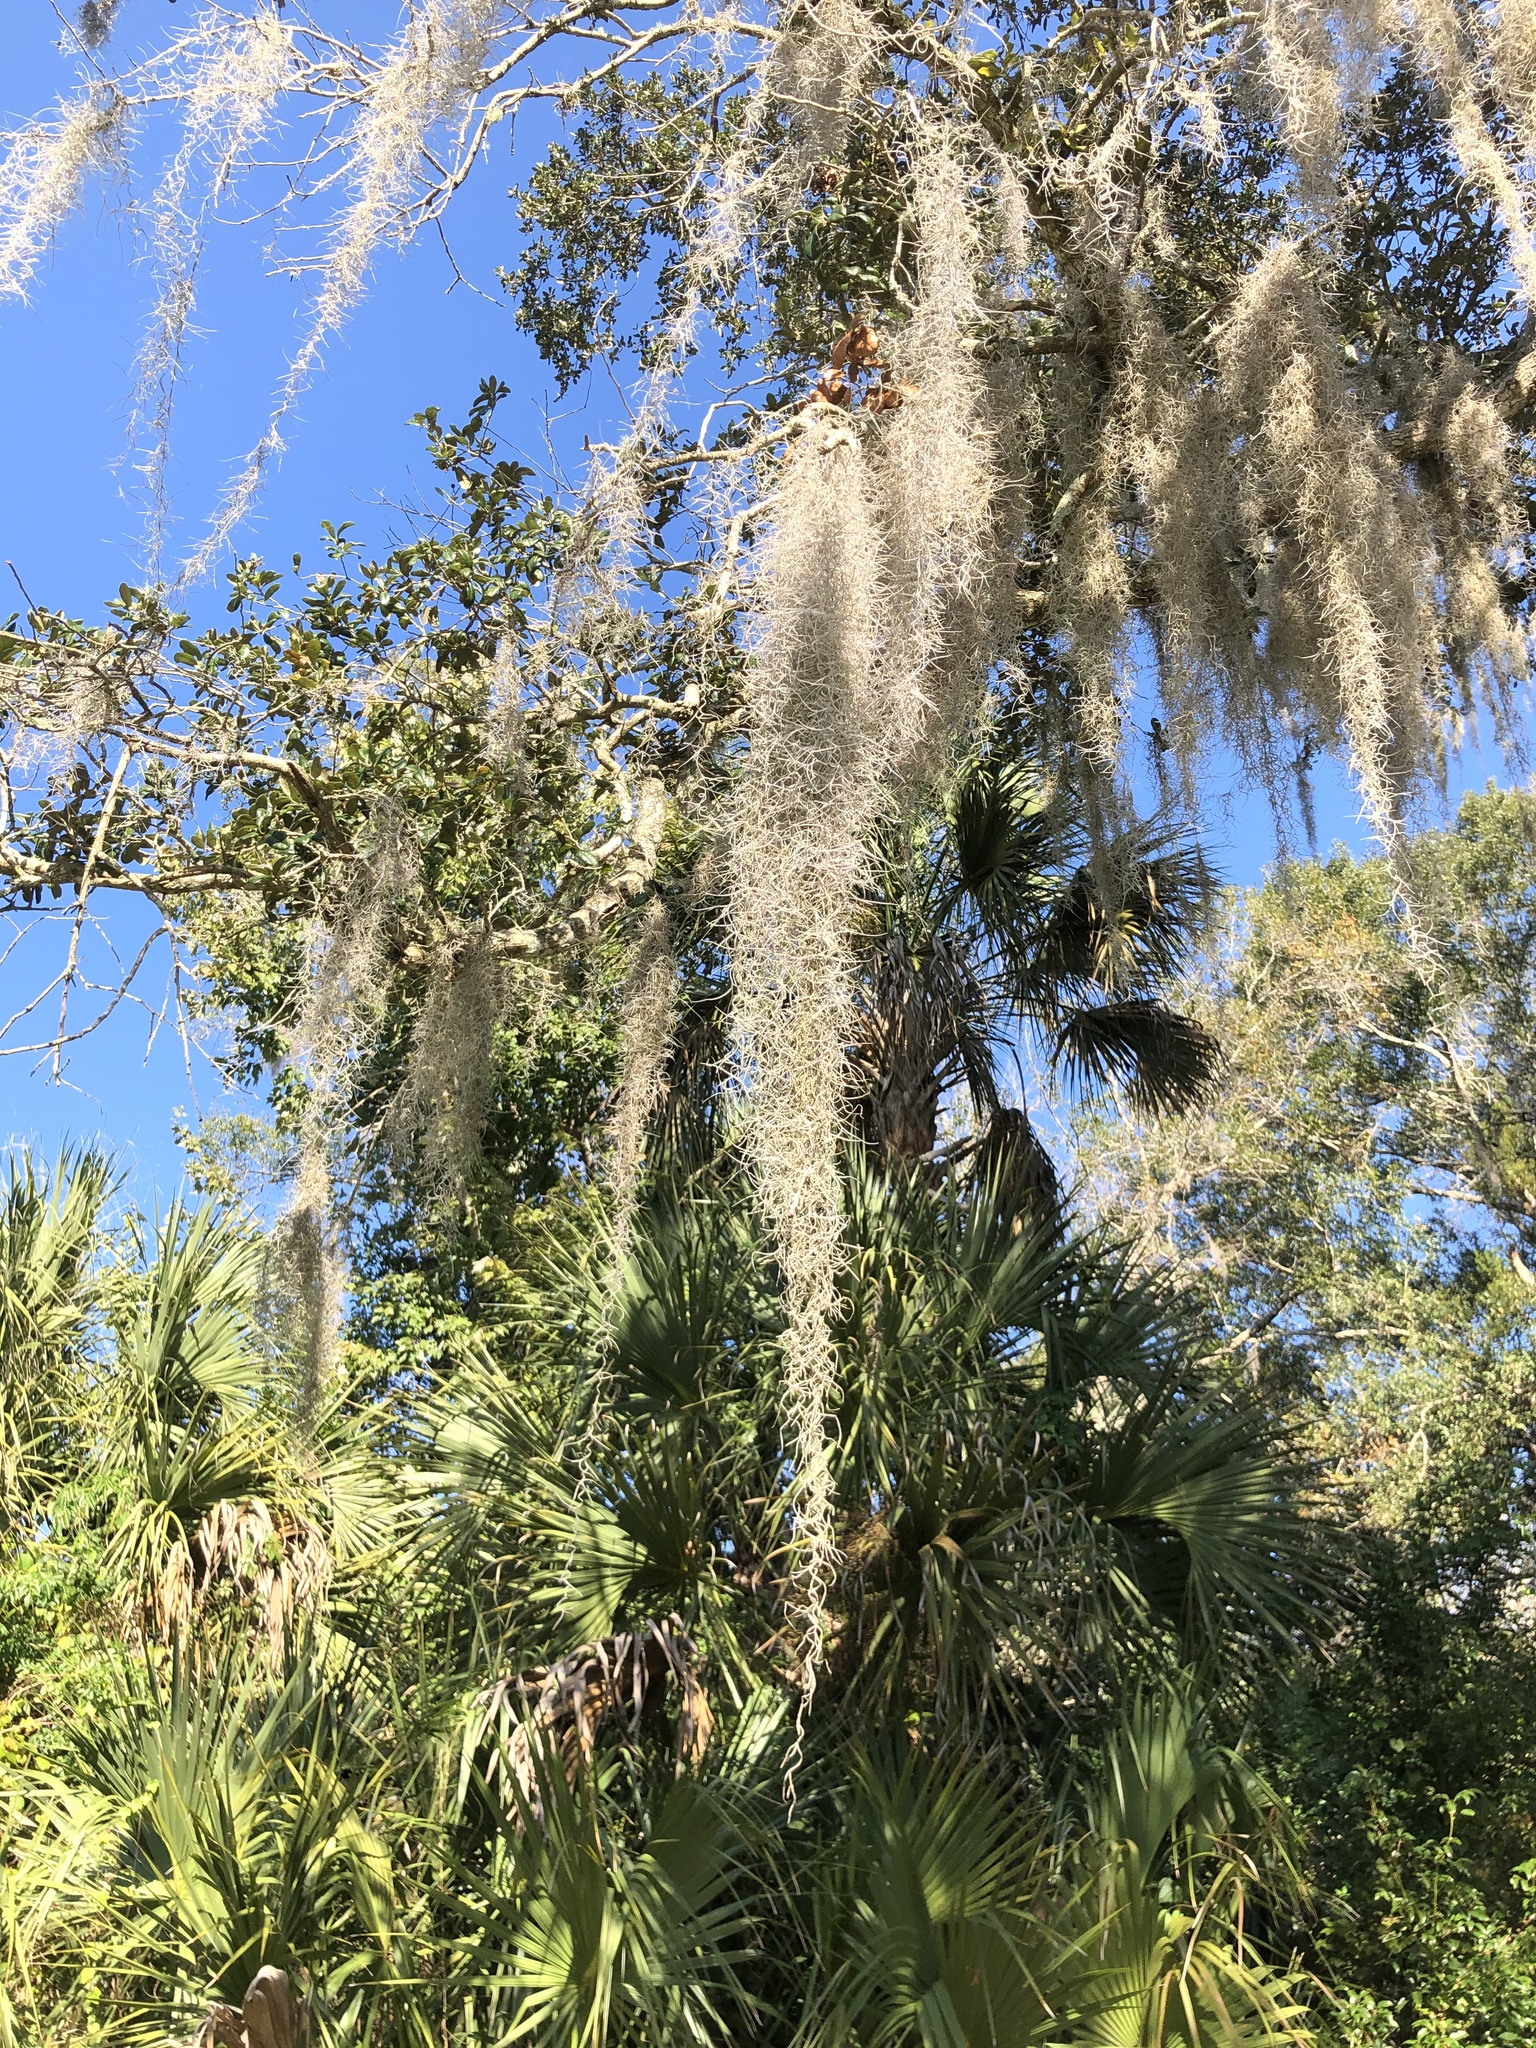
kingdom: Plantae
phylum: Tracheophyta
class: Liliopsida
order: Poales
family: Bromeliaceae
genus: Tillandsia
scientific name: Tillandsia usneoides
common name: Spanish moss
